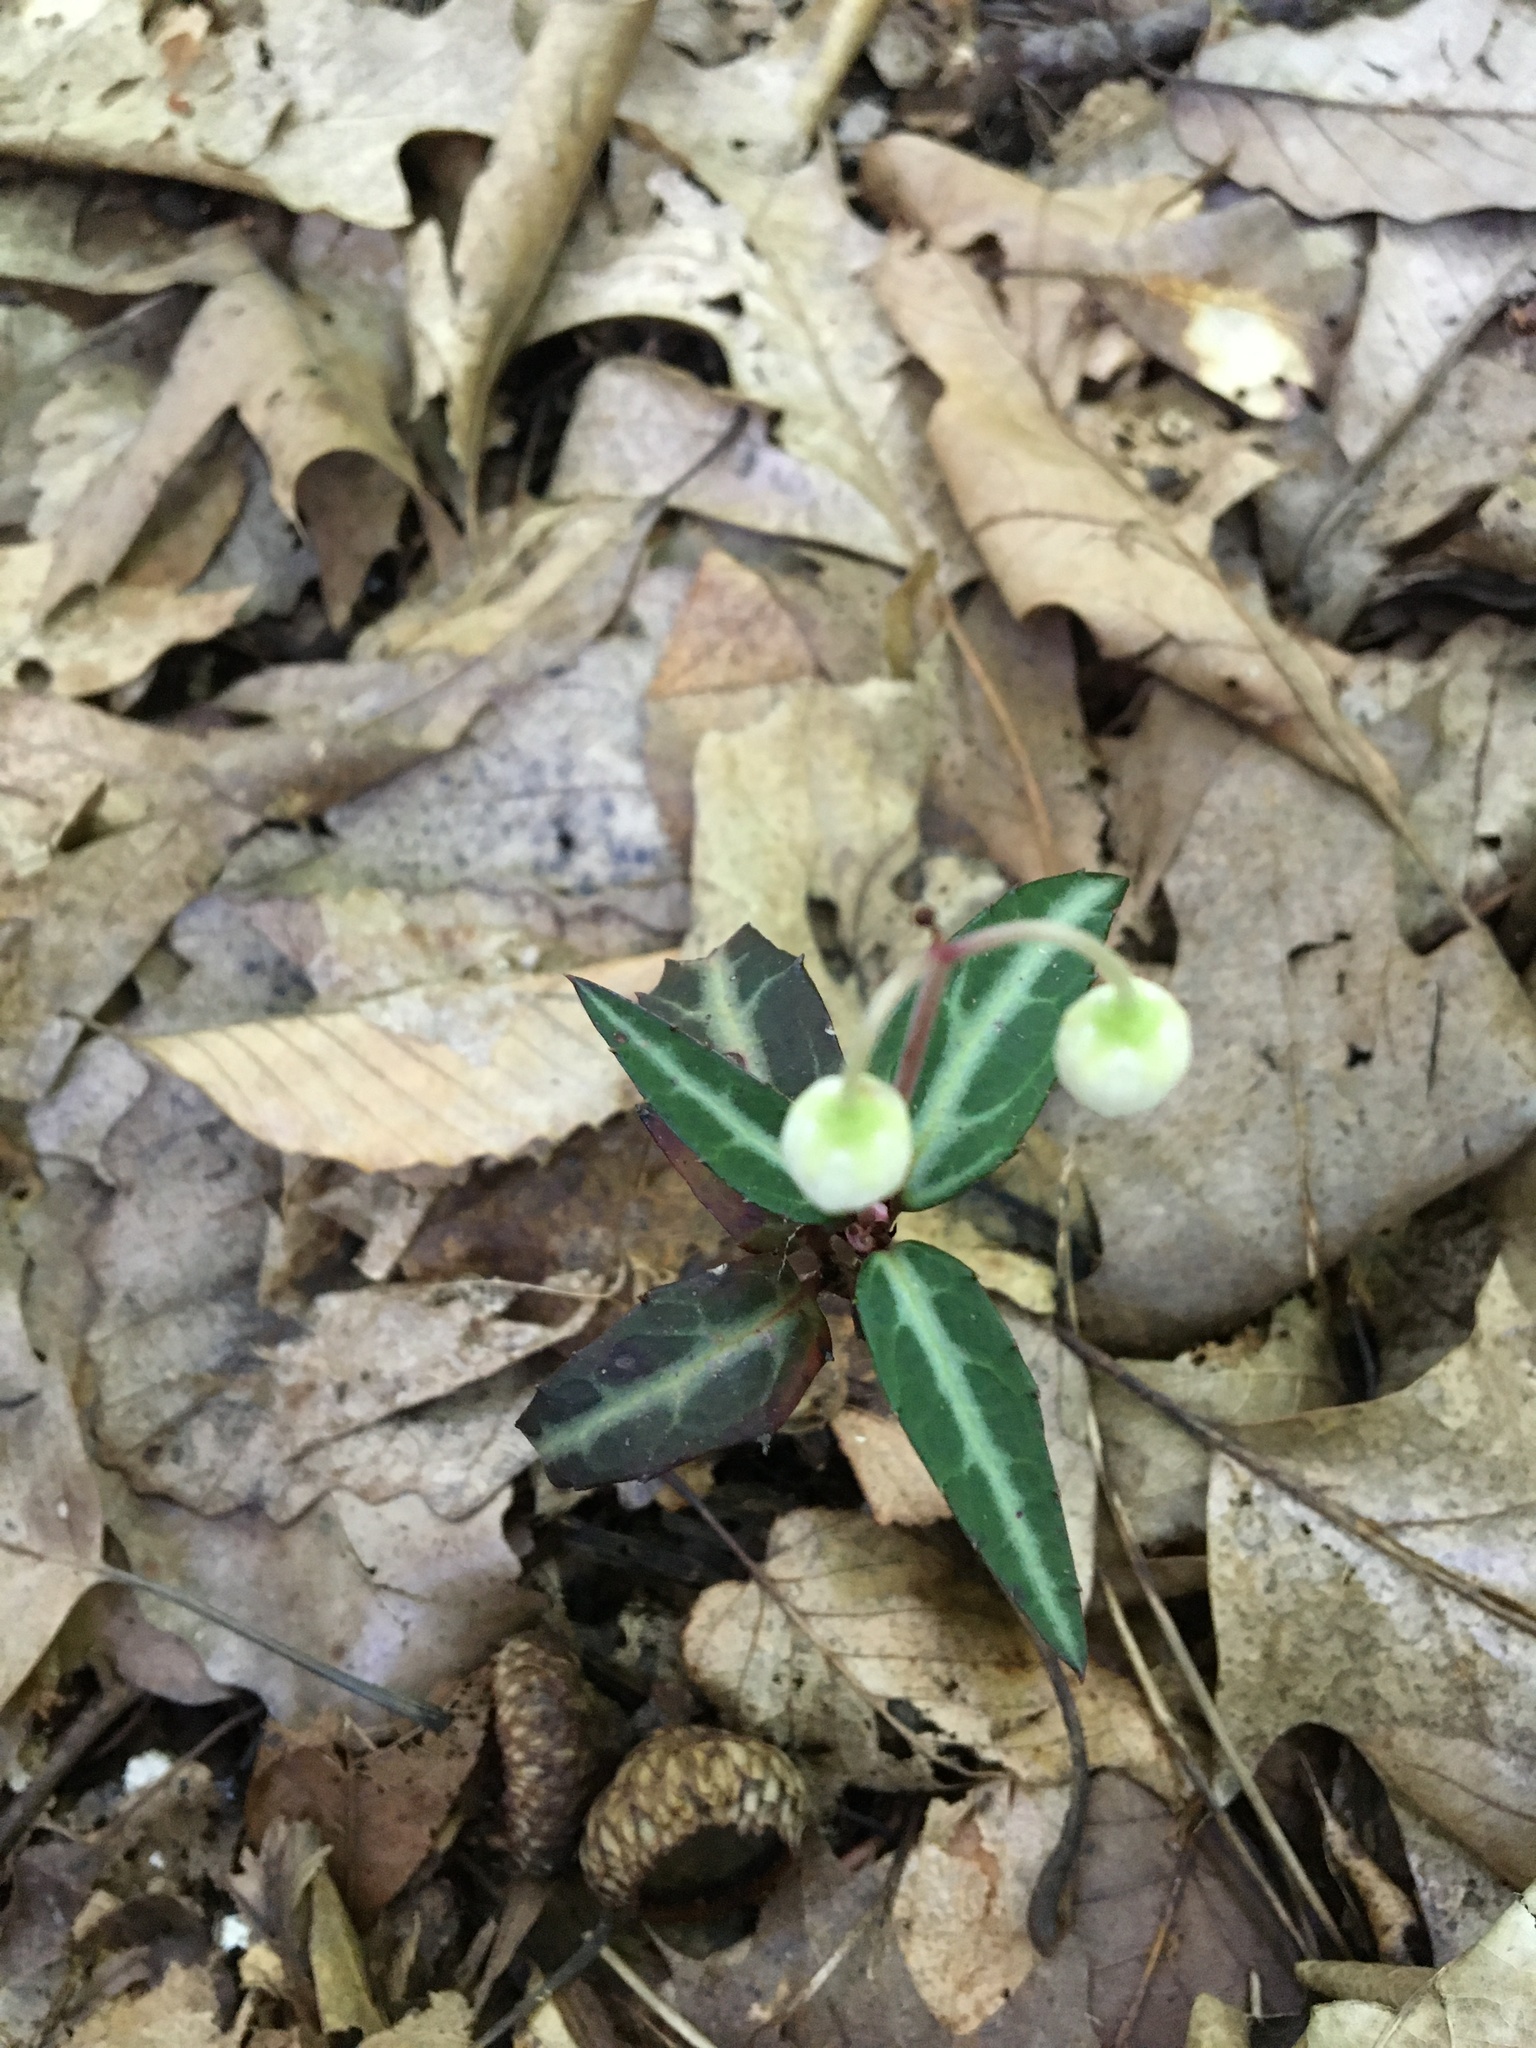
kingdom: Plantae
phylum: Tracheophyta
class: Magnoliopsida
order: Ericales
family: Ericaceae
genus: Chimaphila
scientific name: Chimaphila maculata
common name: Spotted pipsissewa
